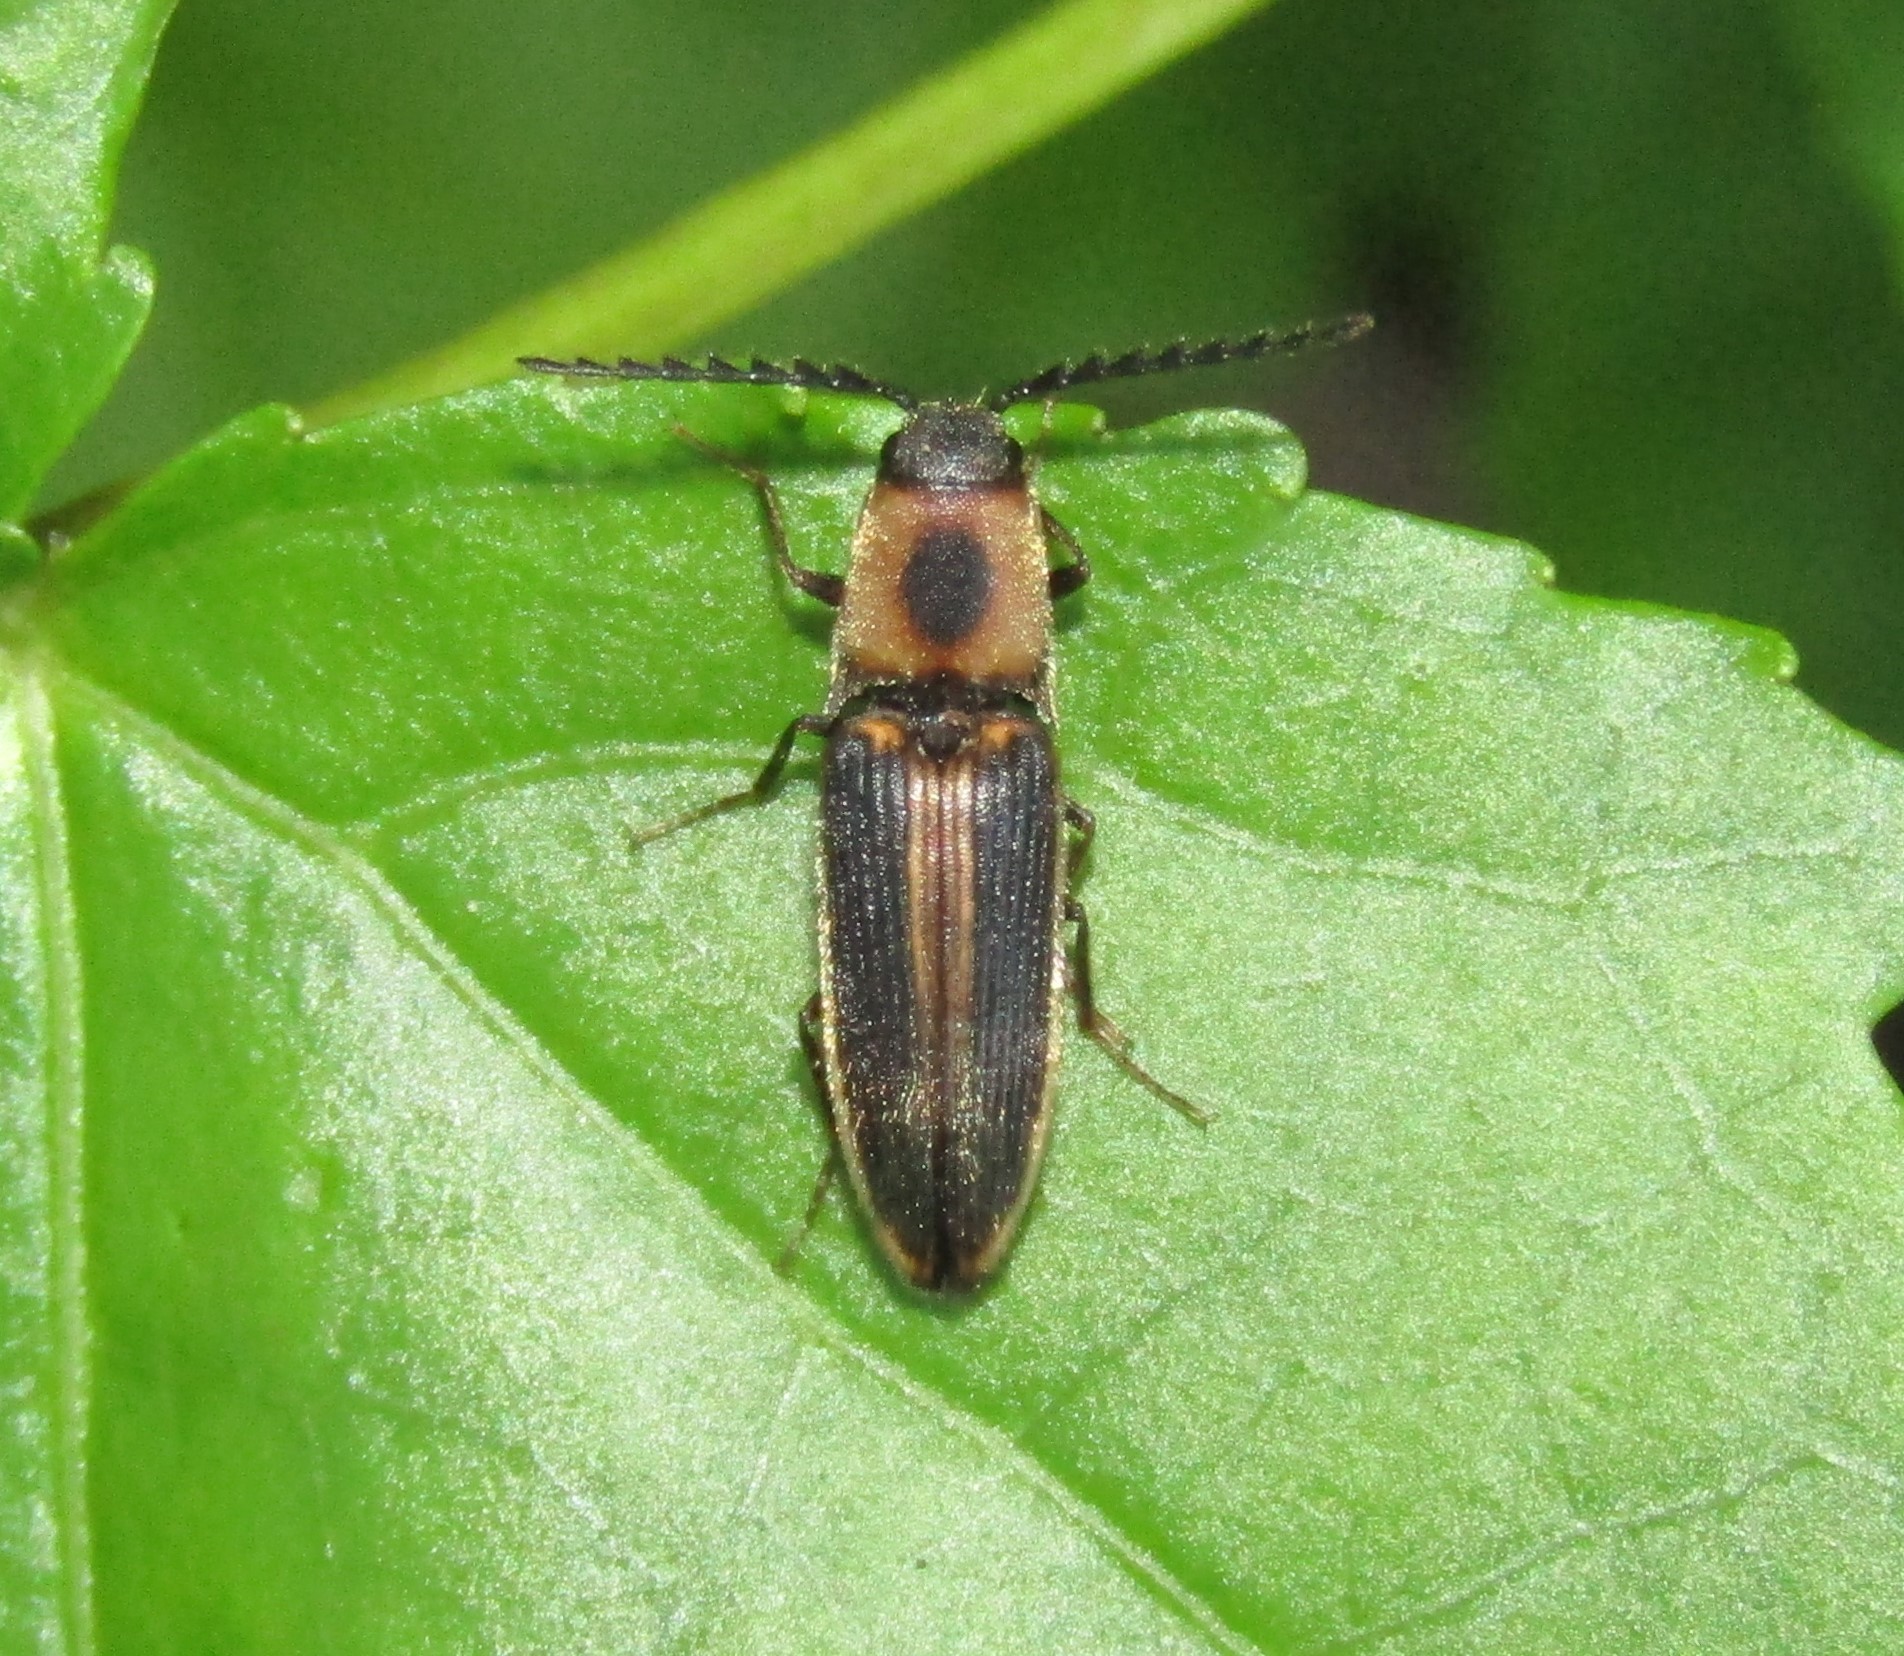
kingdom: Animalia
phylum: Arthropoda
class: Insecta
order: Coleoptera
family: Elateridae
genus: Megapenthes
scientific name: Megapenthes
